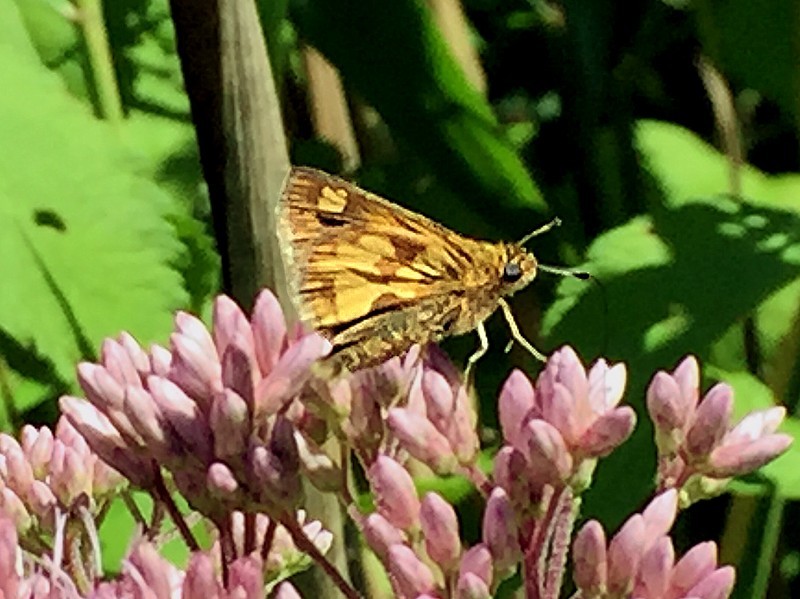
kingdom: Animalia
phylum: Arthropoda
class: Insecta
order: Lepidoptera
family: Hesperiidae
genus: Polites
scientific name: Polites coras
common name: Peck's skipper
